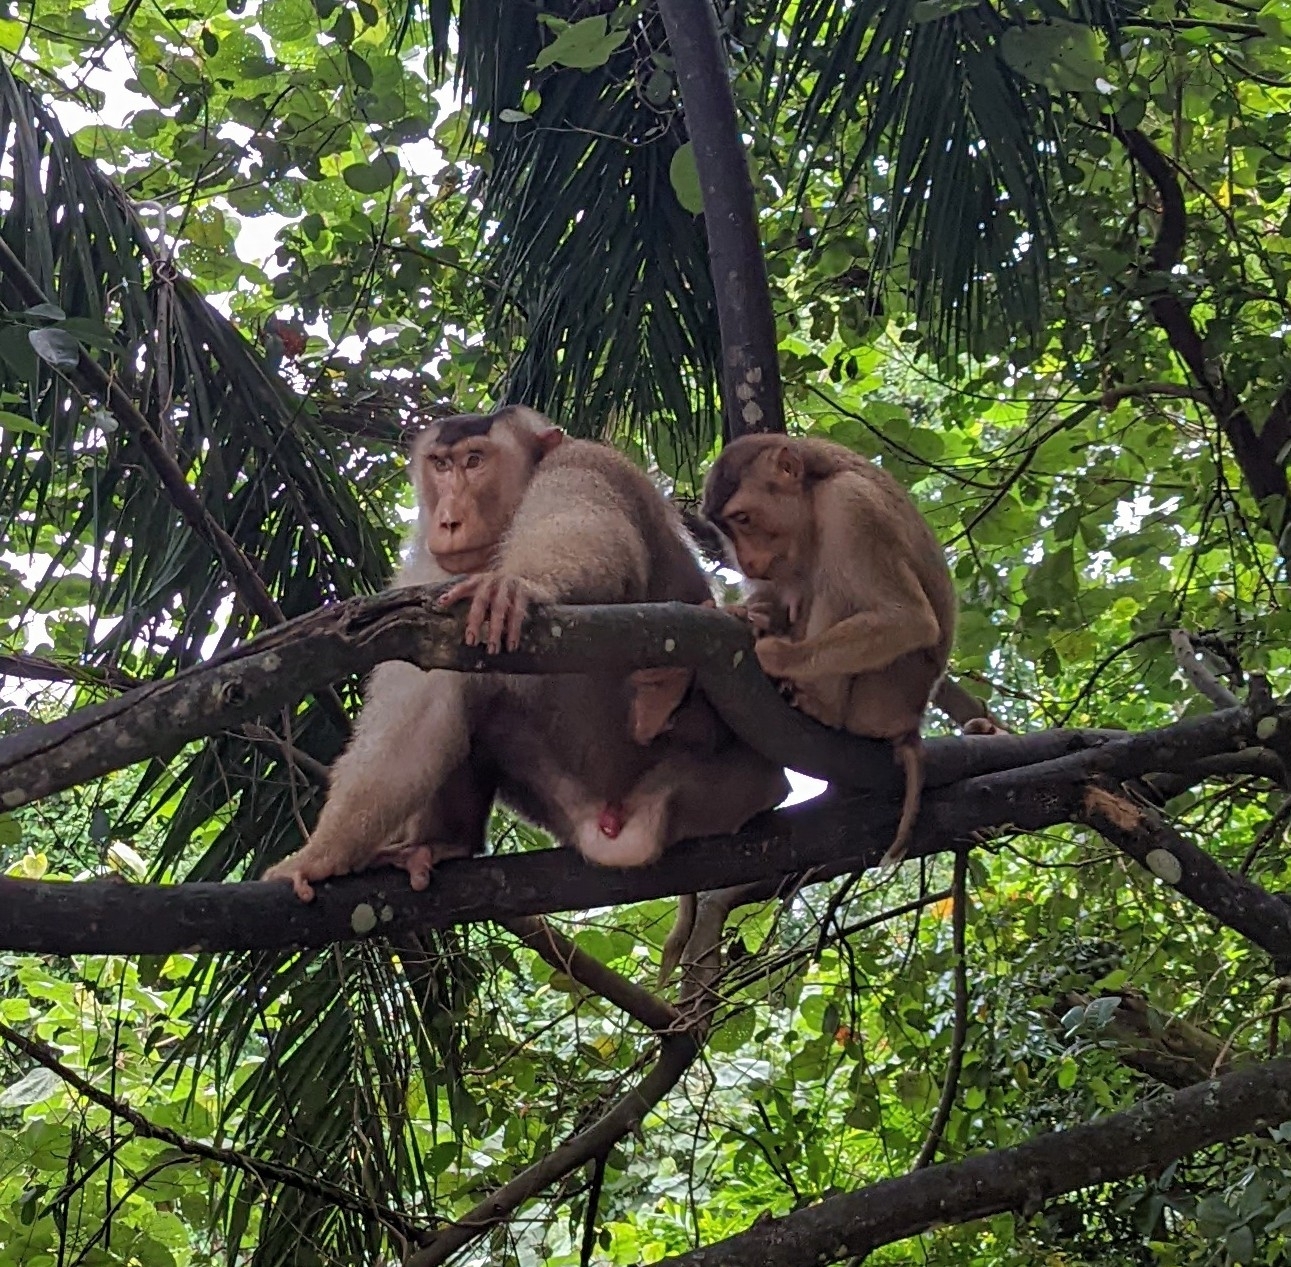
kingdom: Animalia
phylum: Chordata
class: Mammalia
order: Primates
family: Cercopithecidae
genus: Macaca
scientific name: Macaca nemestrina
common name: Southern pig-tailed macaque
